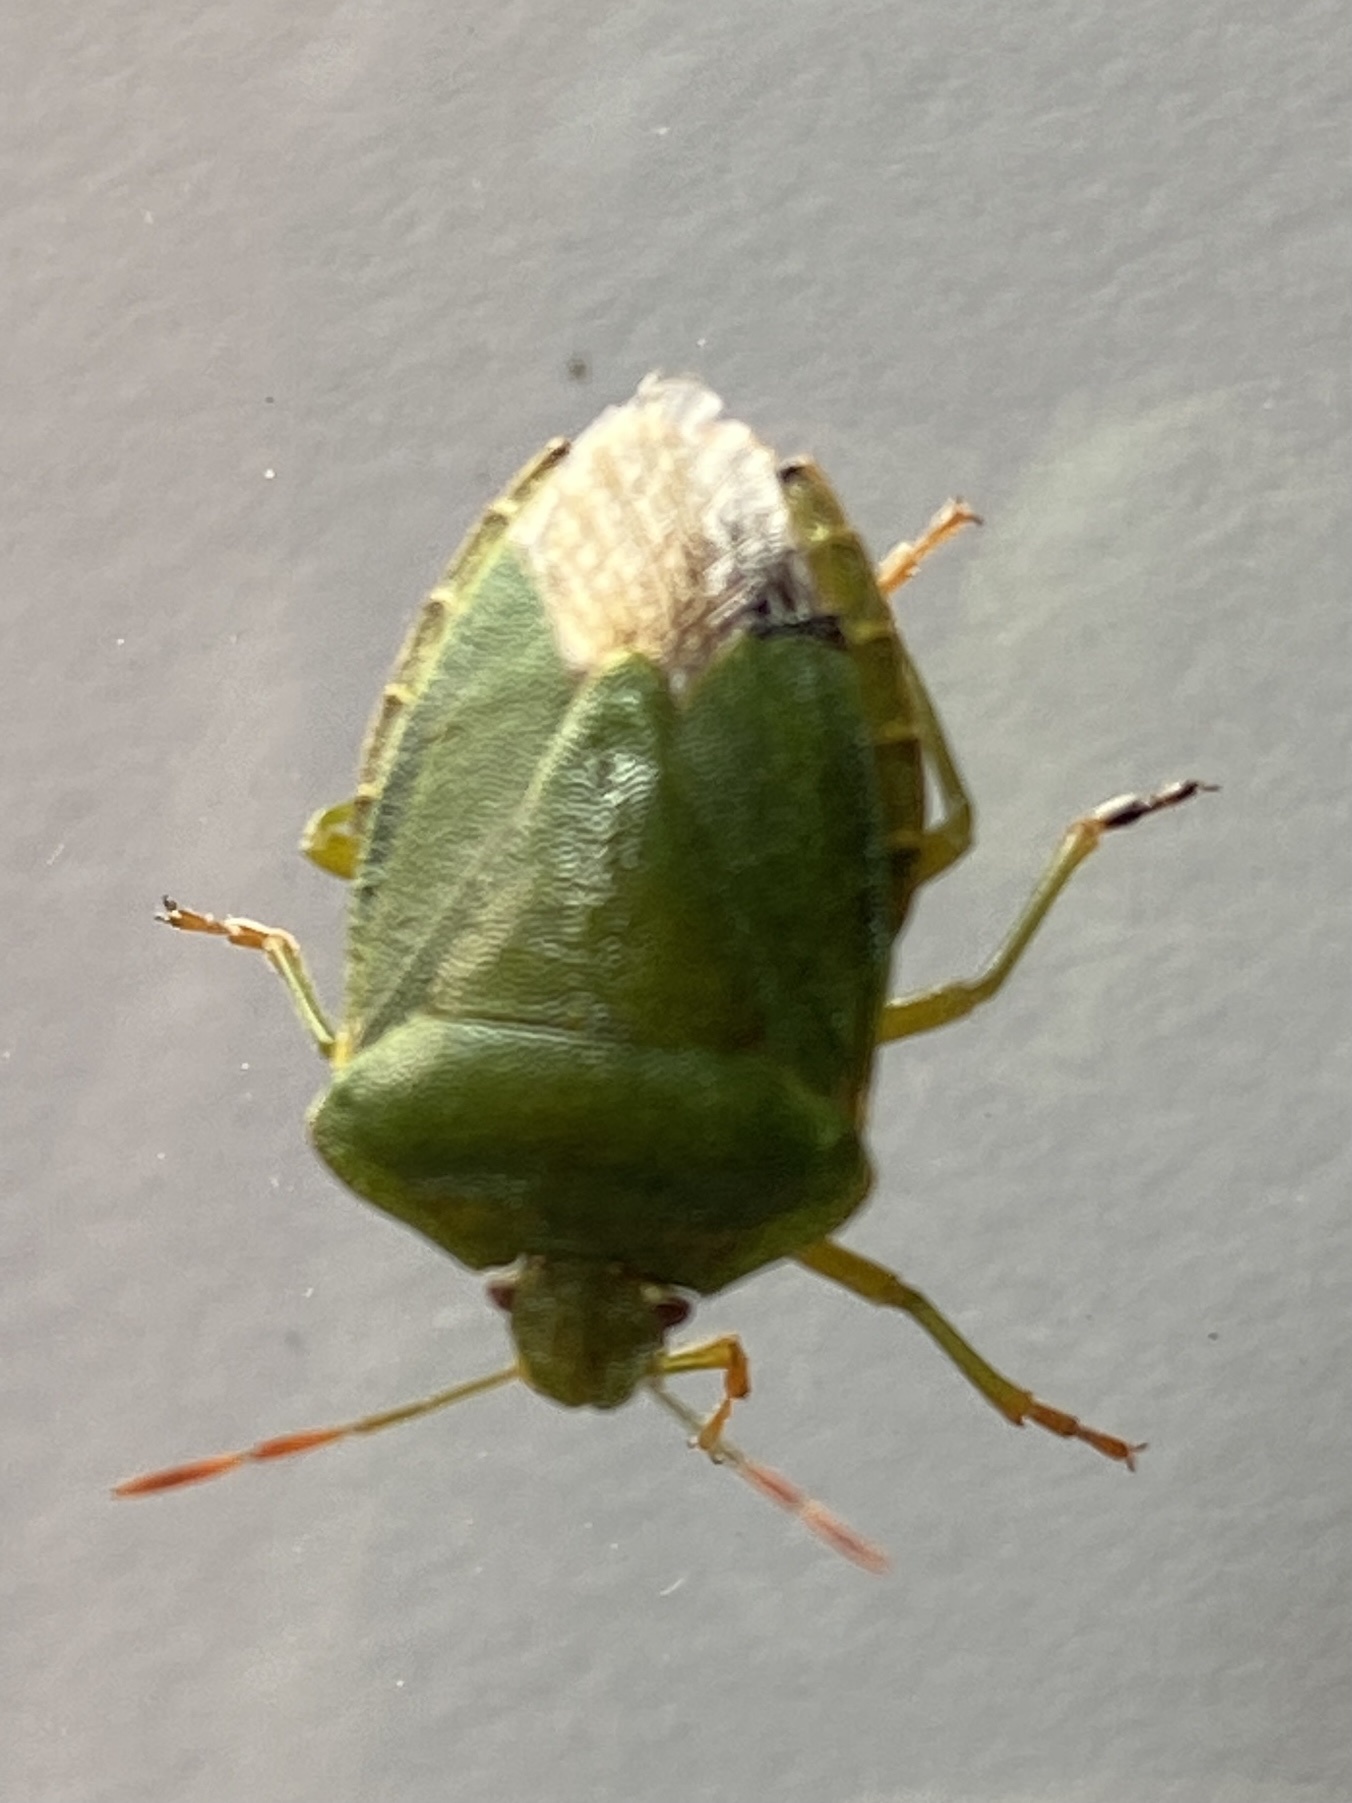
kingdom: Animalia
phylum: Arthropoda
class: Insecta
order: Hemiptera
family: Pentatomidae
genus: Palomena
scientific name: Palomena prasina
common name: Green shieldbug
